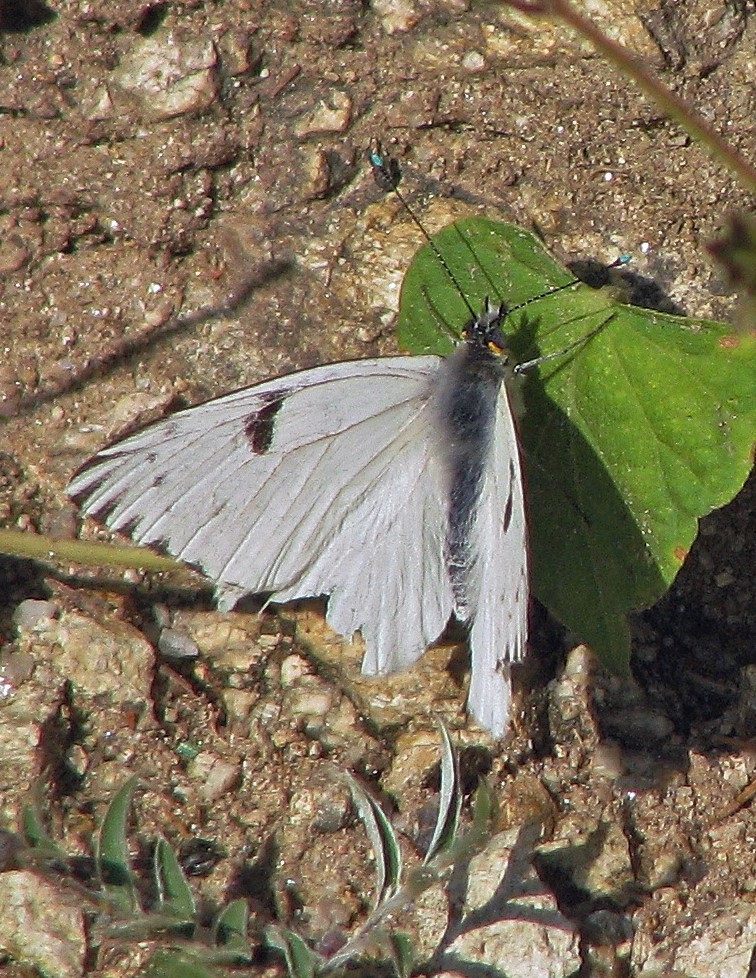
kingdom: Animalia
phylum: Arthropoda
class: Insecta
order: Lepidoptera
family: Pieridae
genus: Tatochila
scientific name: Tatochila autodice
